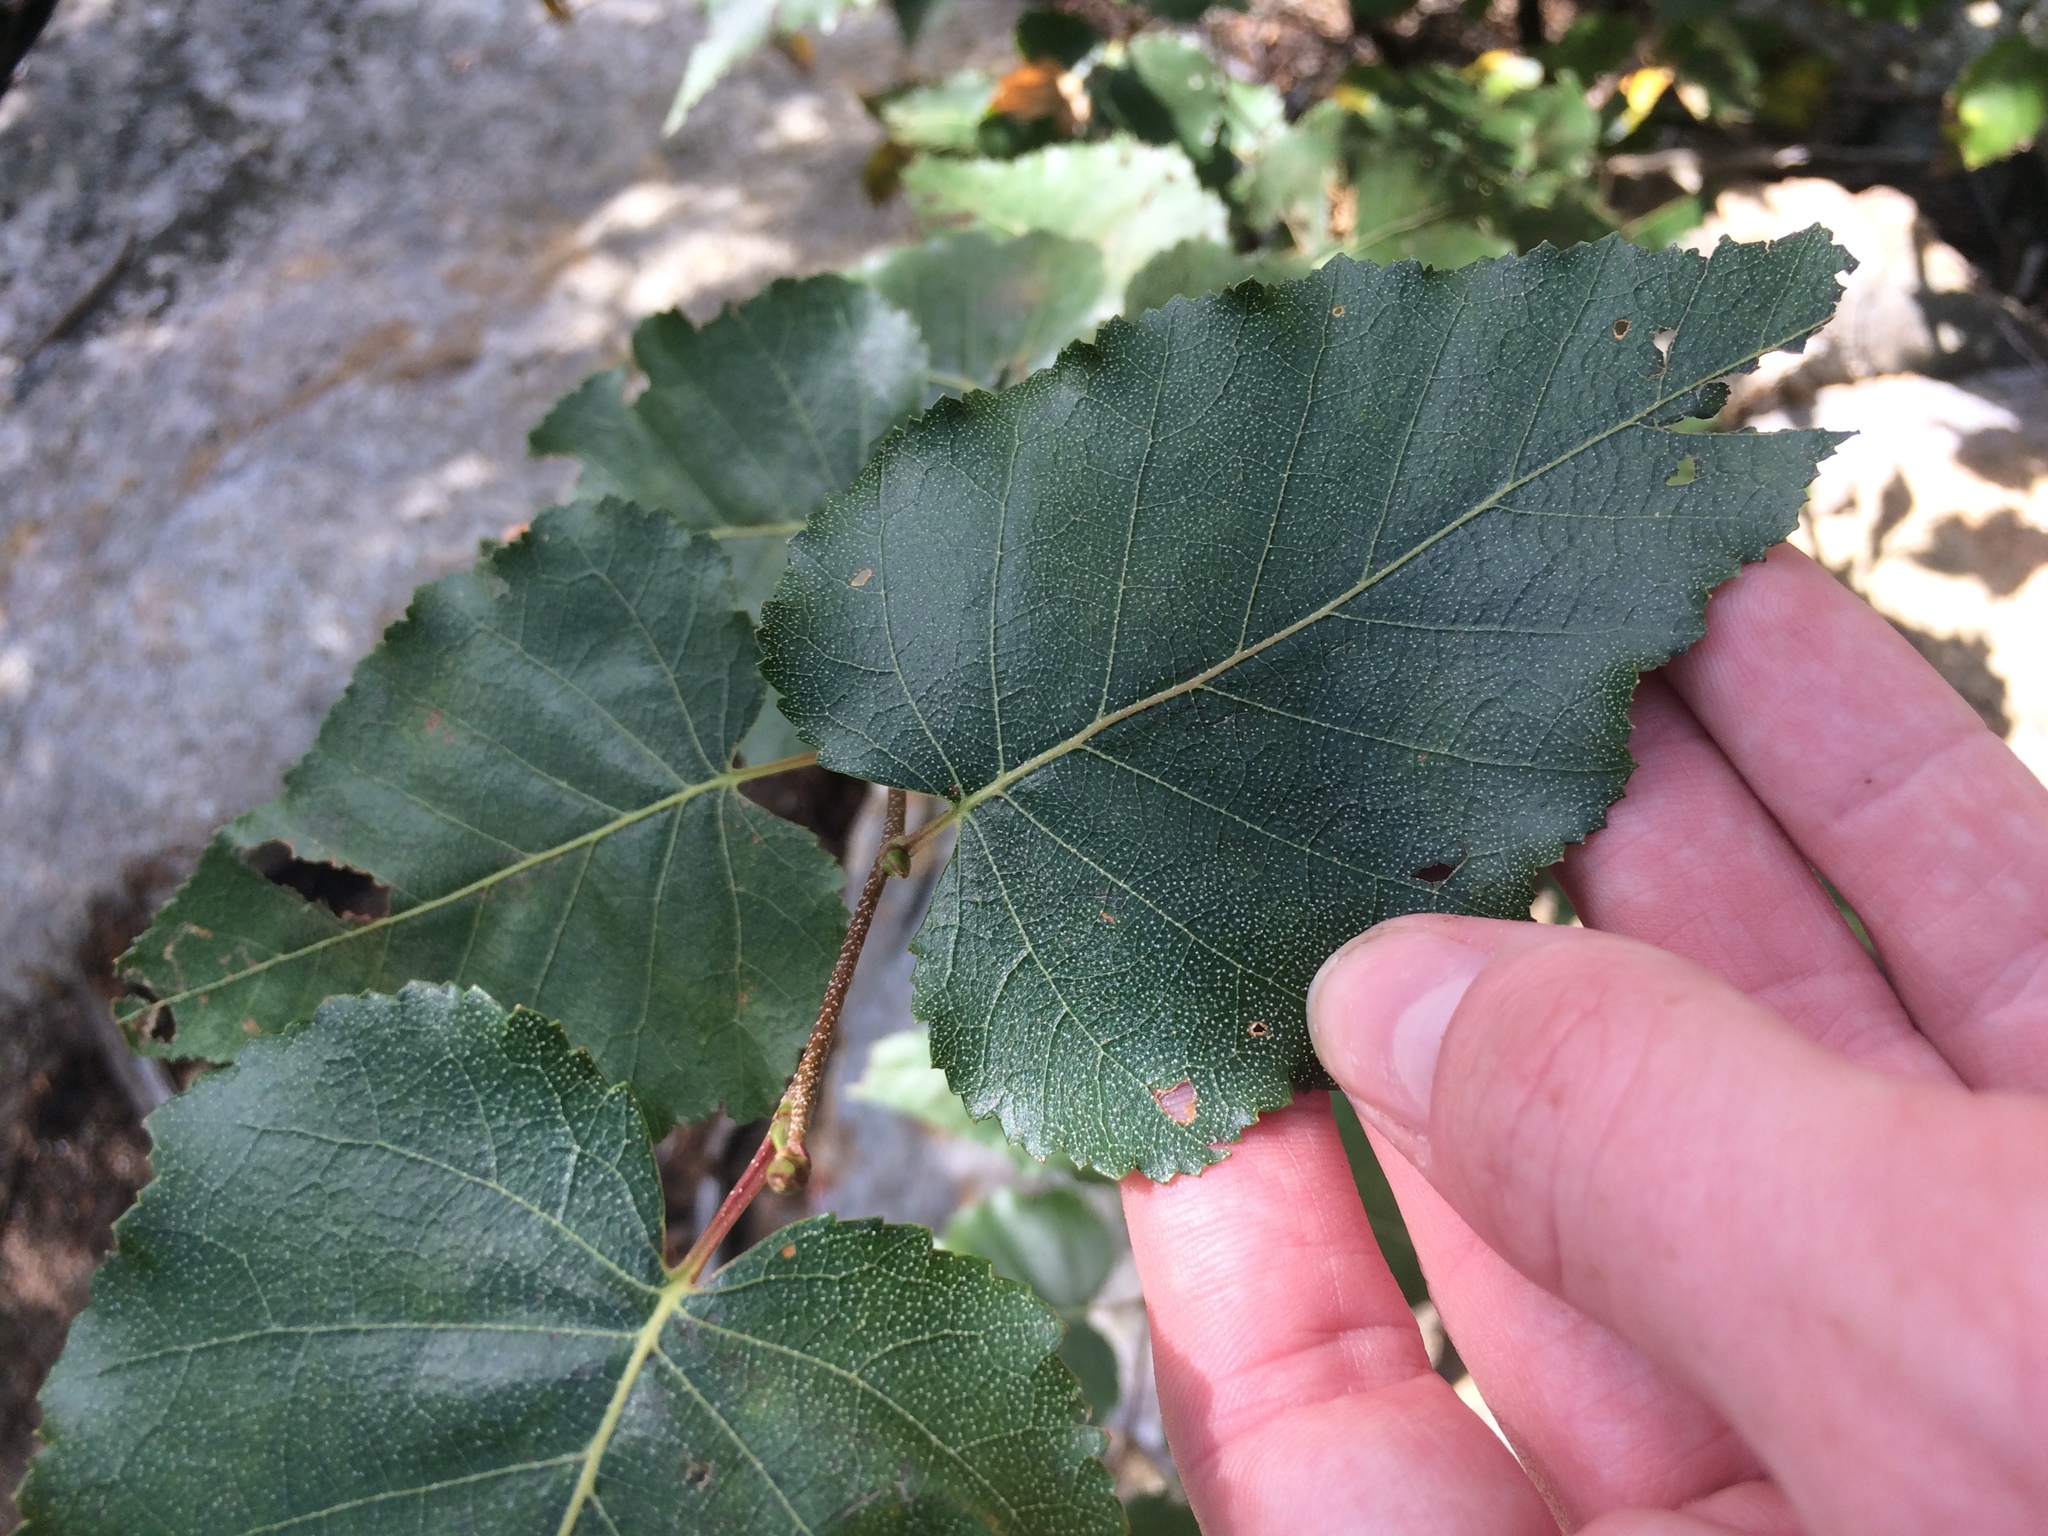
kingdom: Plantae
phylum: Tracheophyta
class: Magnoliopsida
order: Fagales
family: Betulaceae
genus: Betula
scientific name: Betula cordifolia
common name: Mountain white birch
